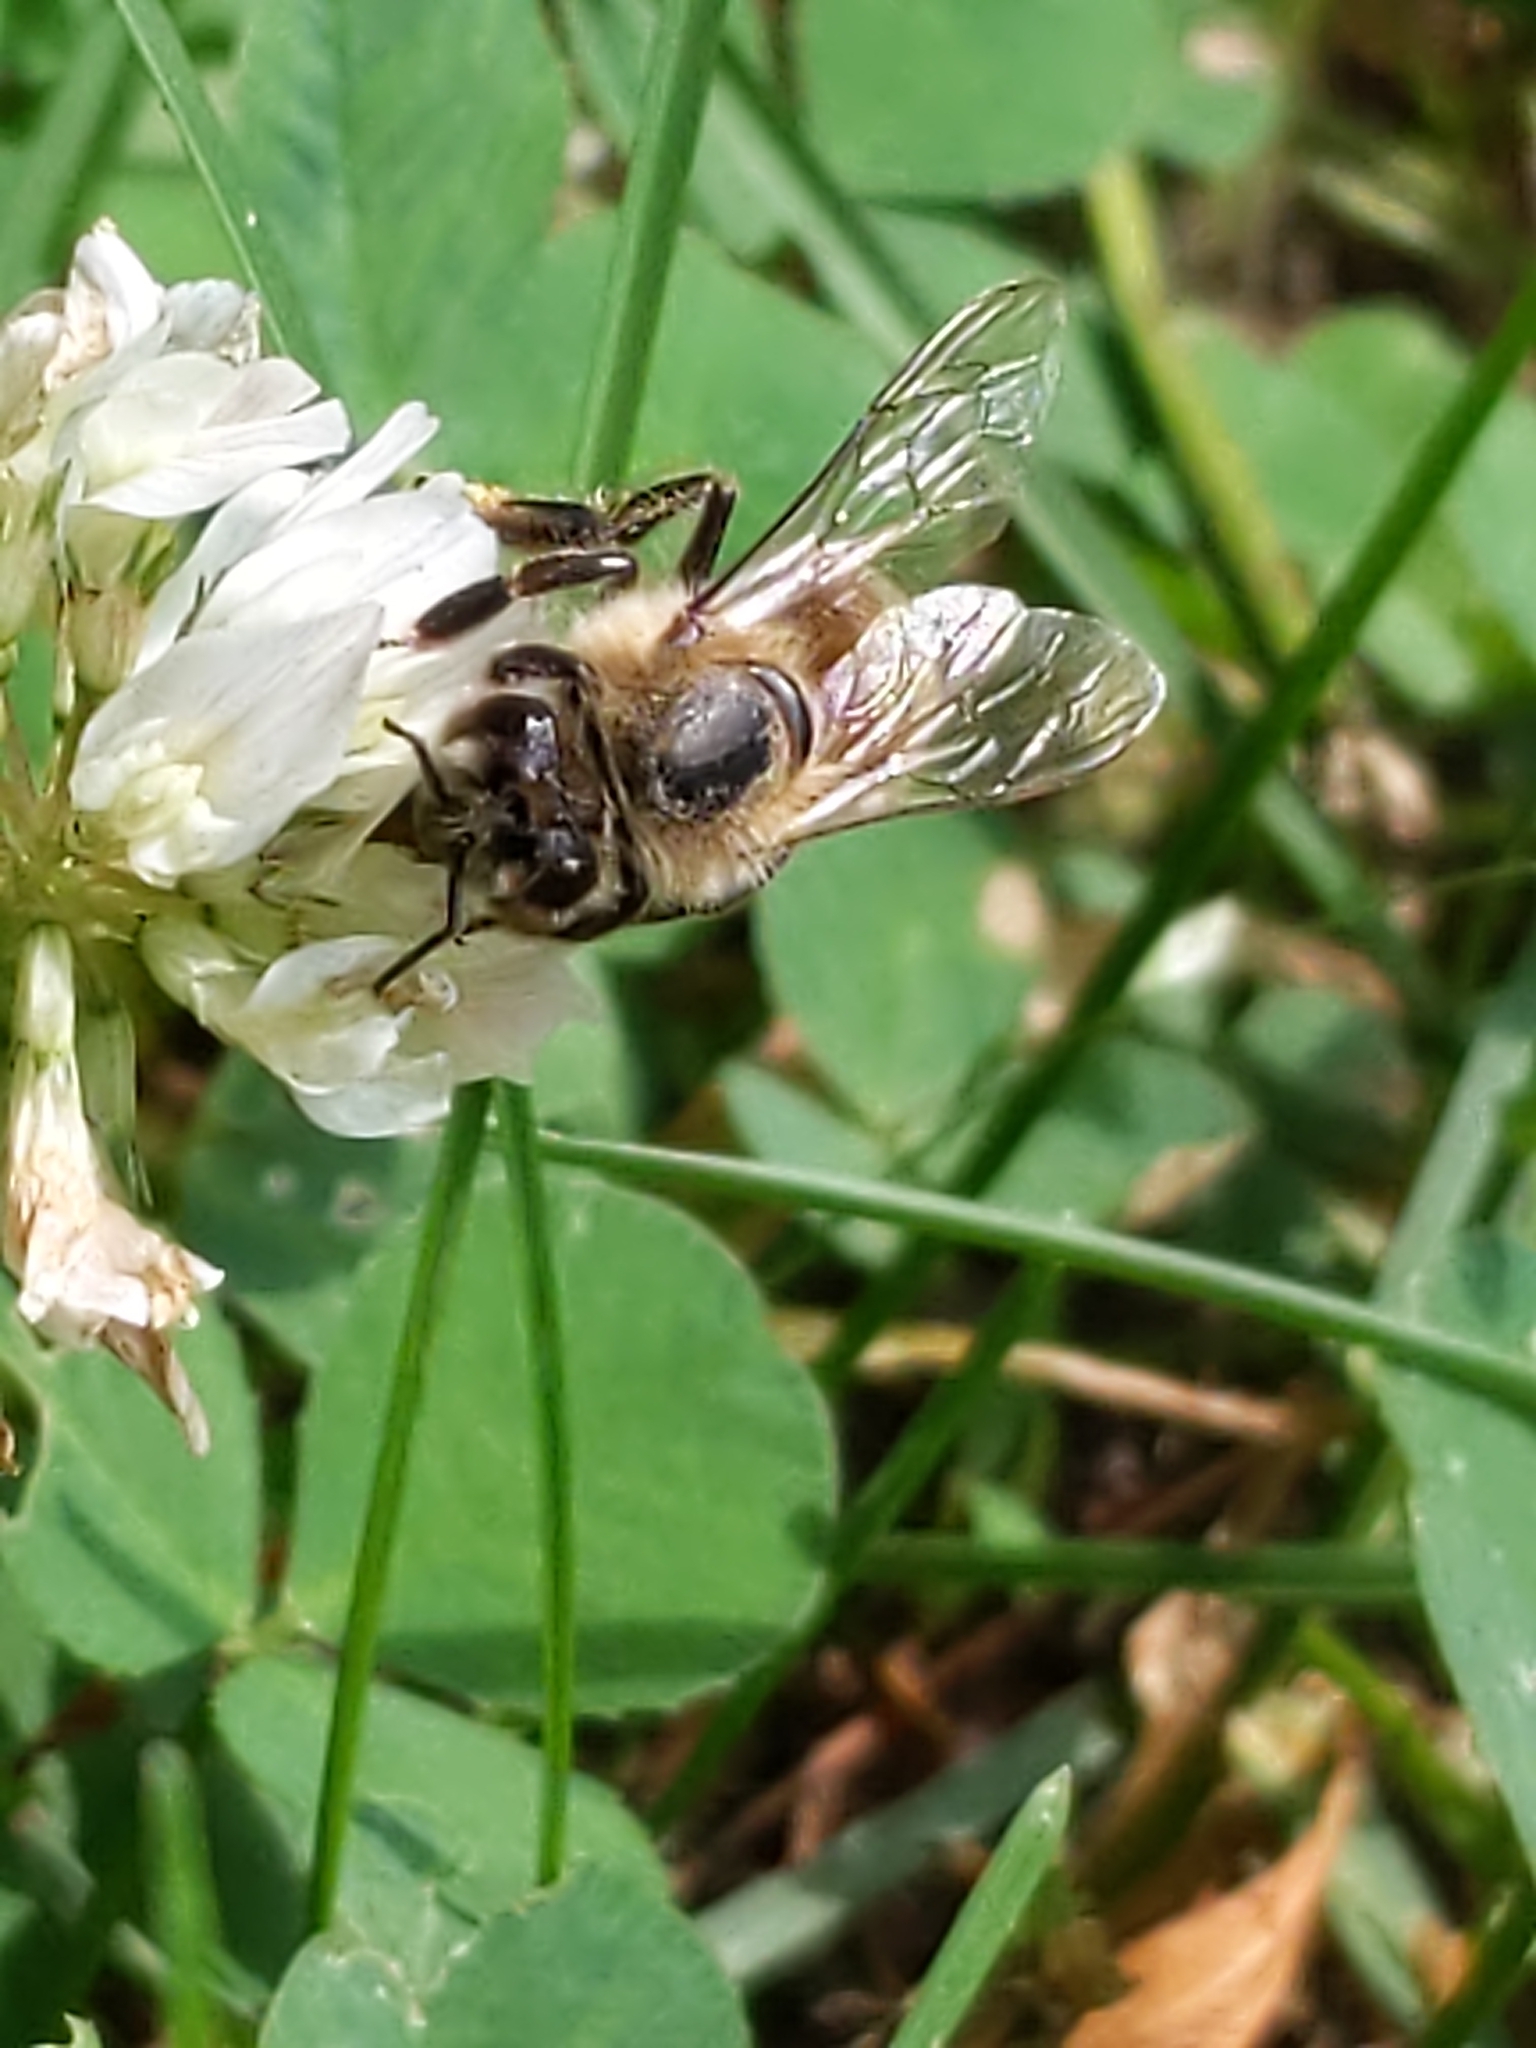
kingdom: Animalia
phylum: Arthropoda
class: Insecta
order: Hymenoptera
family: Apidae
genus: Apis
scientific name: Apis mellifera
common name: Honey bee
